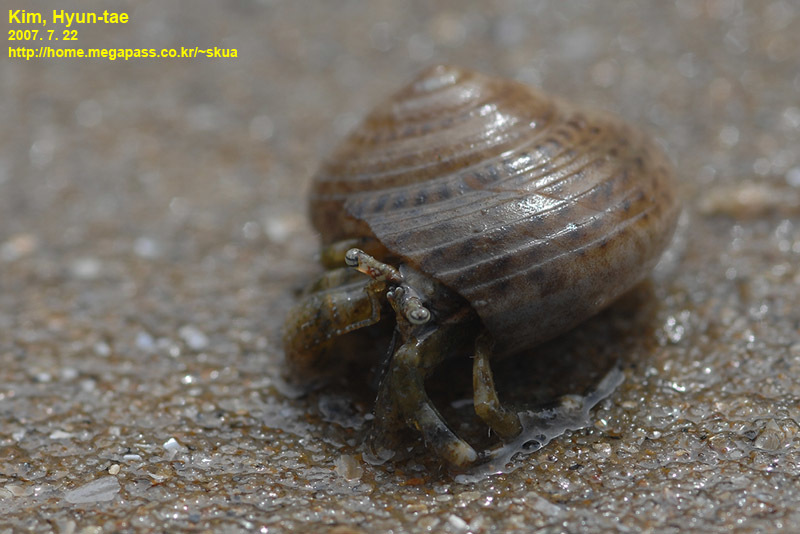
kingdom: Animalia
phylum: Arthropoda
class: Malacostraca
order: Decapoda
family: Paguridae
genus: Pagurus
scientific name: Pagurus minutus
